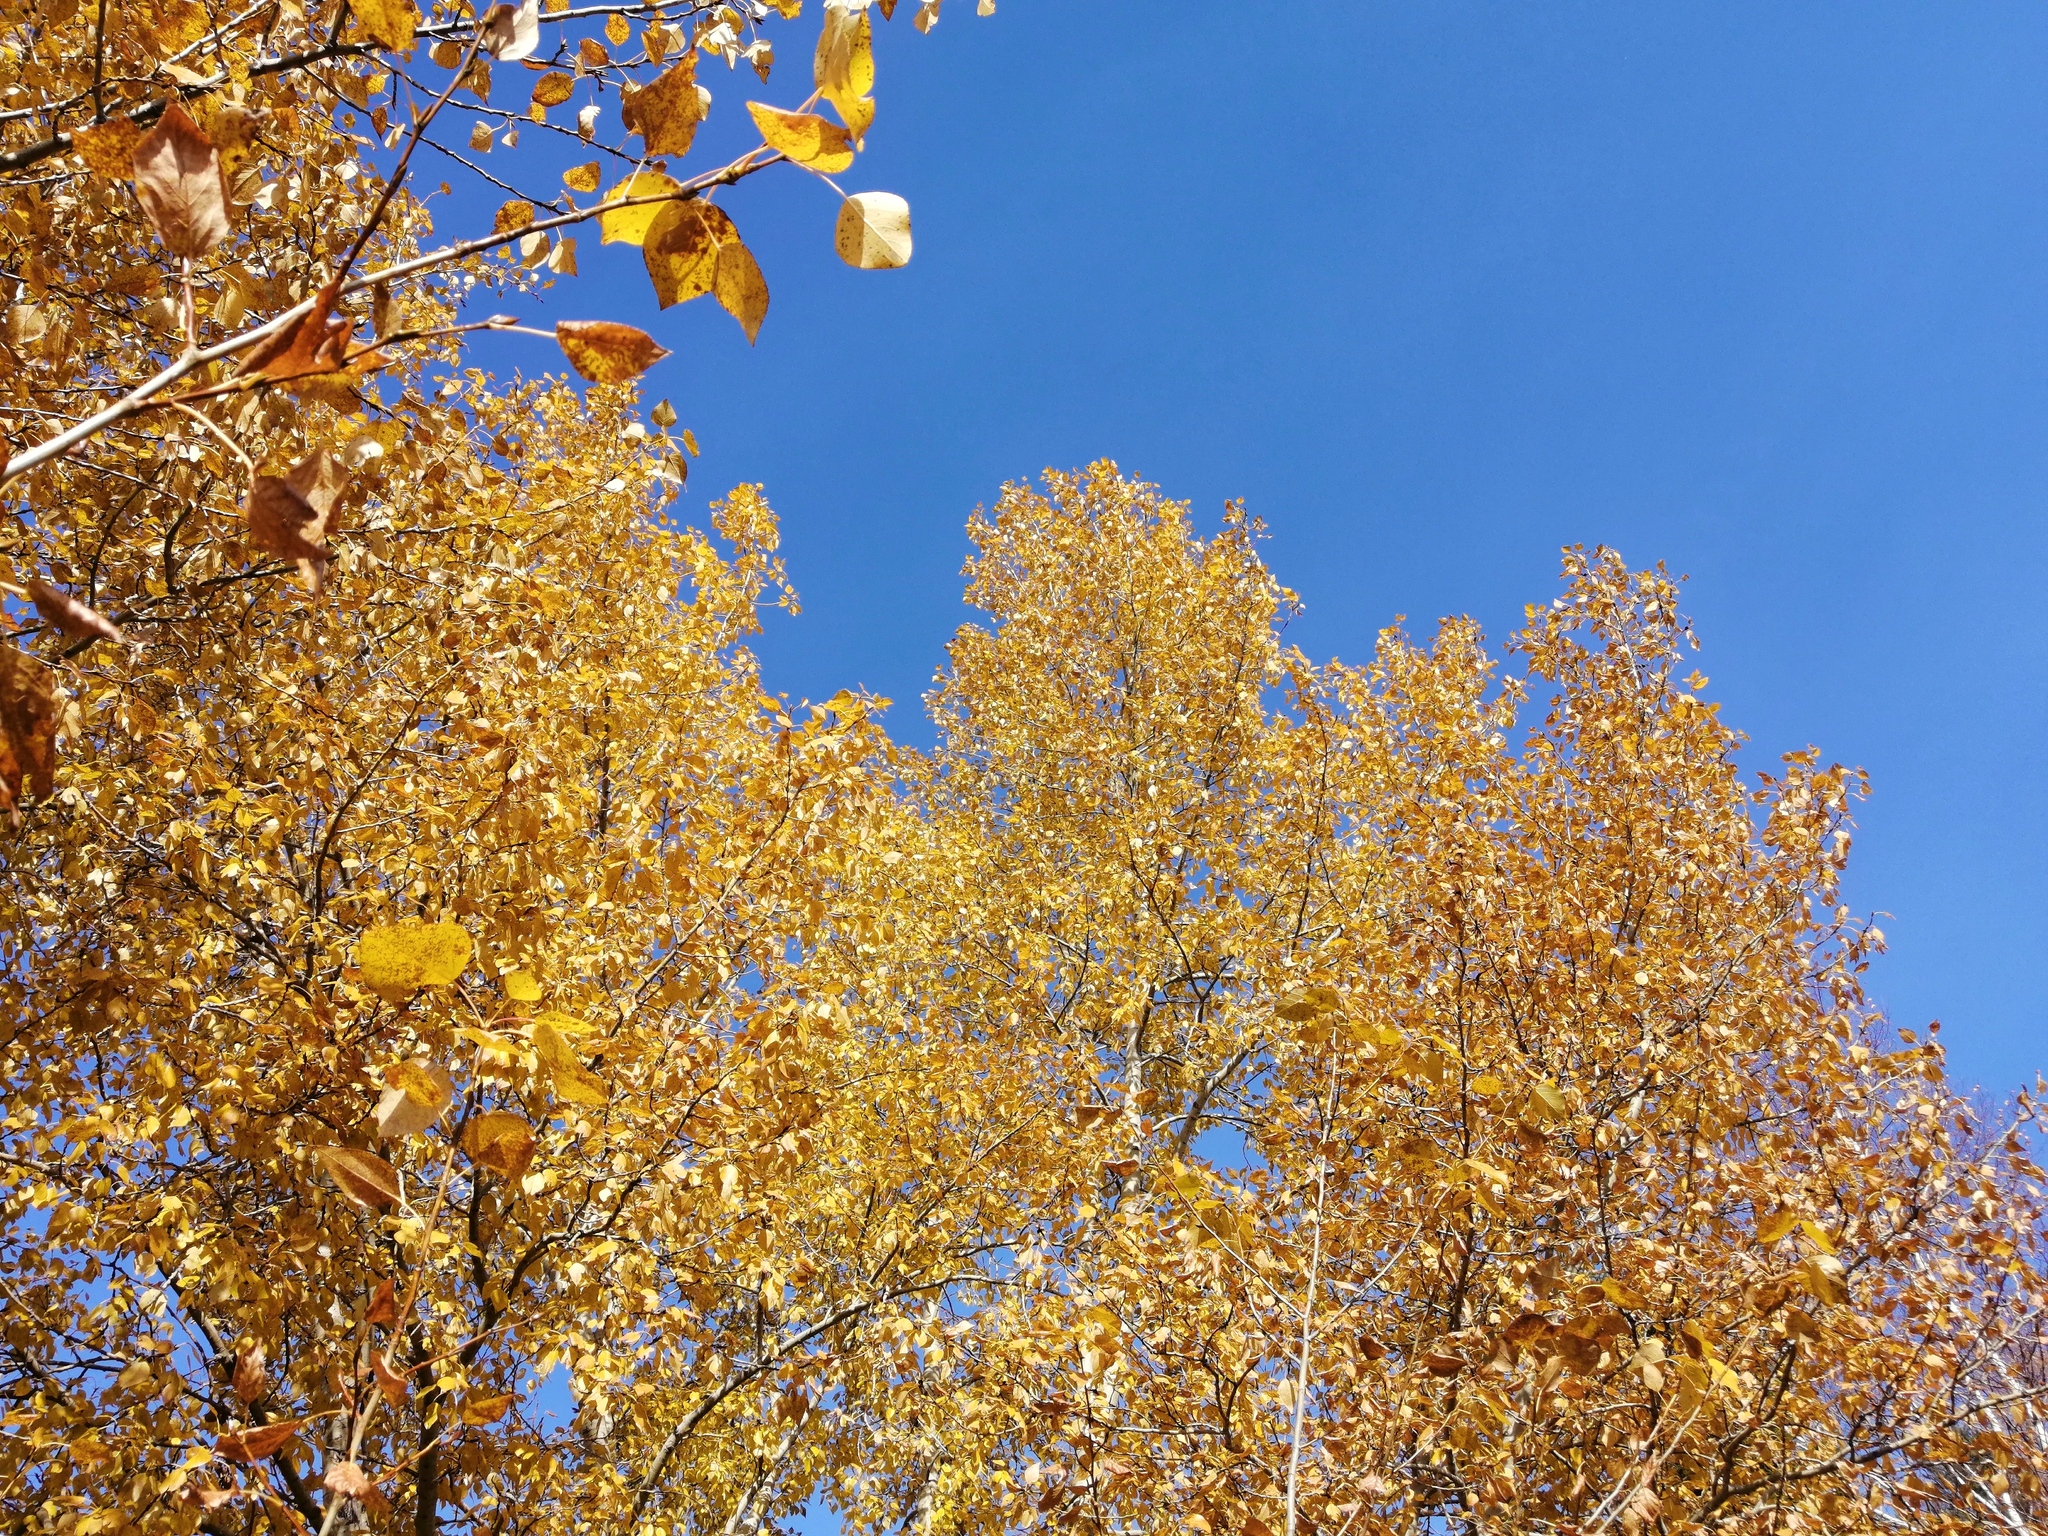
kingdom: Plantae
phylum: Tracheophyta
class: Magnoliopsida
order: Fagales
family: Betulaceae
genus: Betula
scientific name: Betula pubescens
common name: Downy birch
